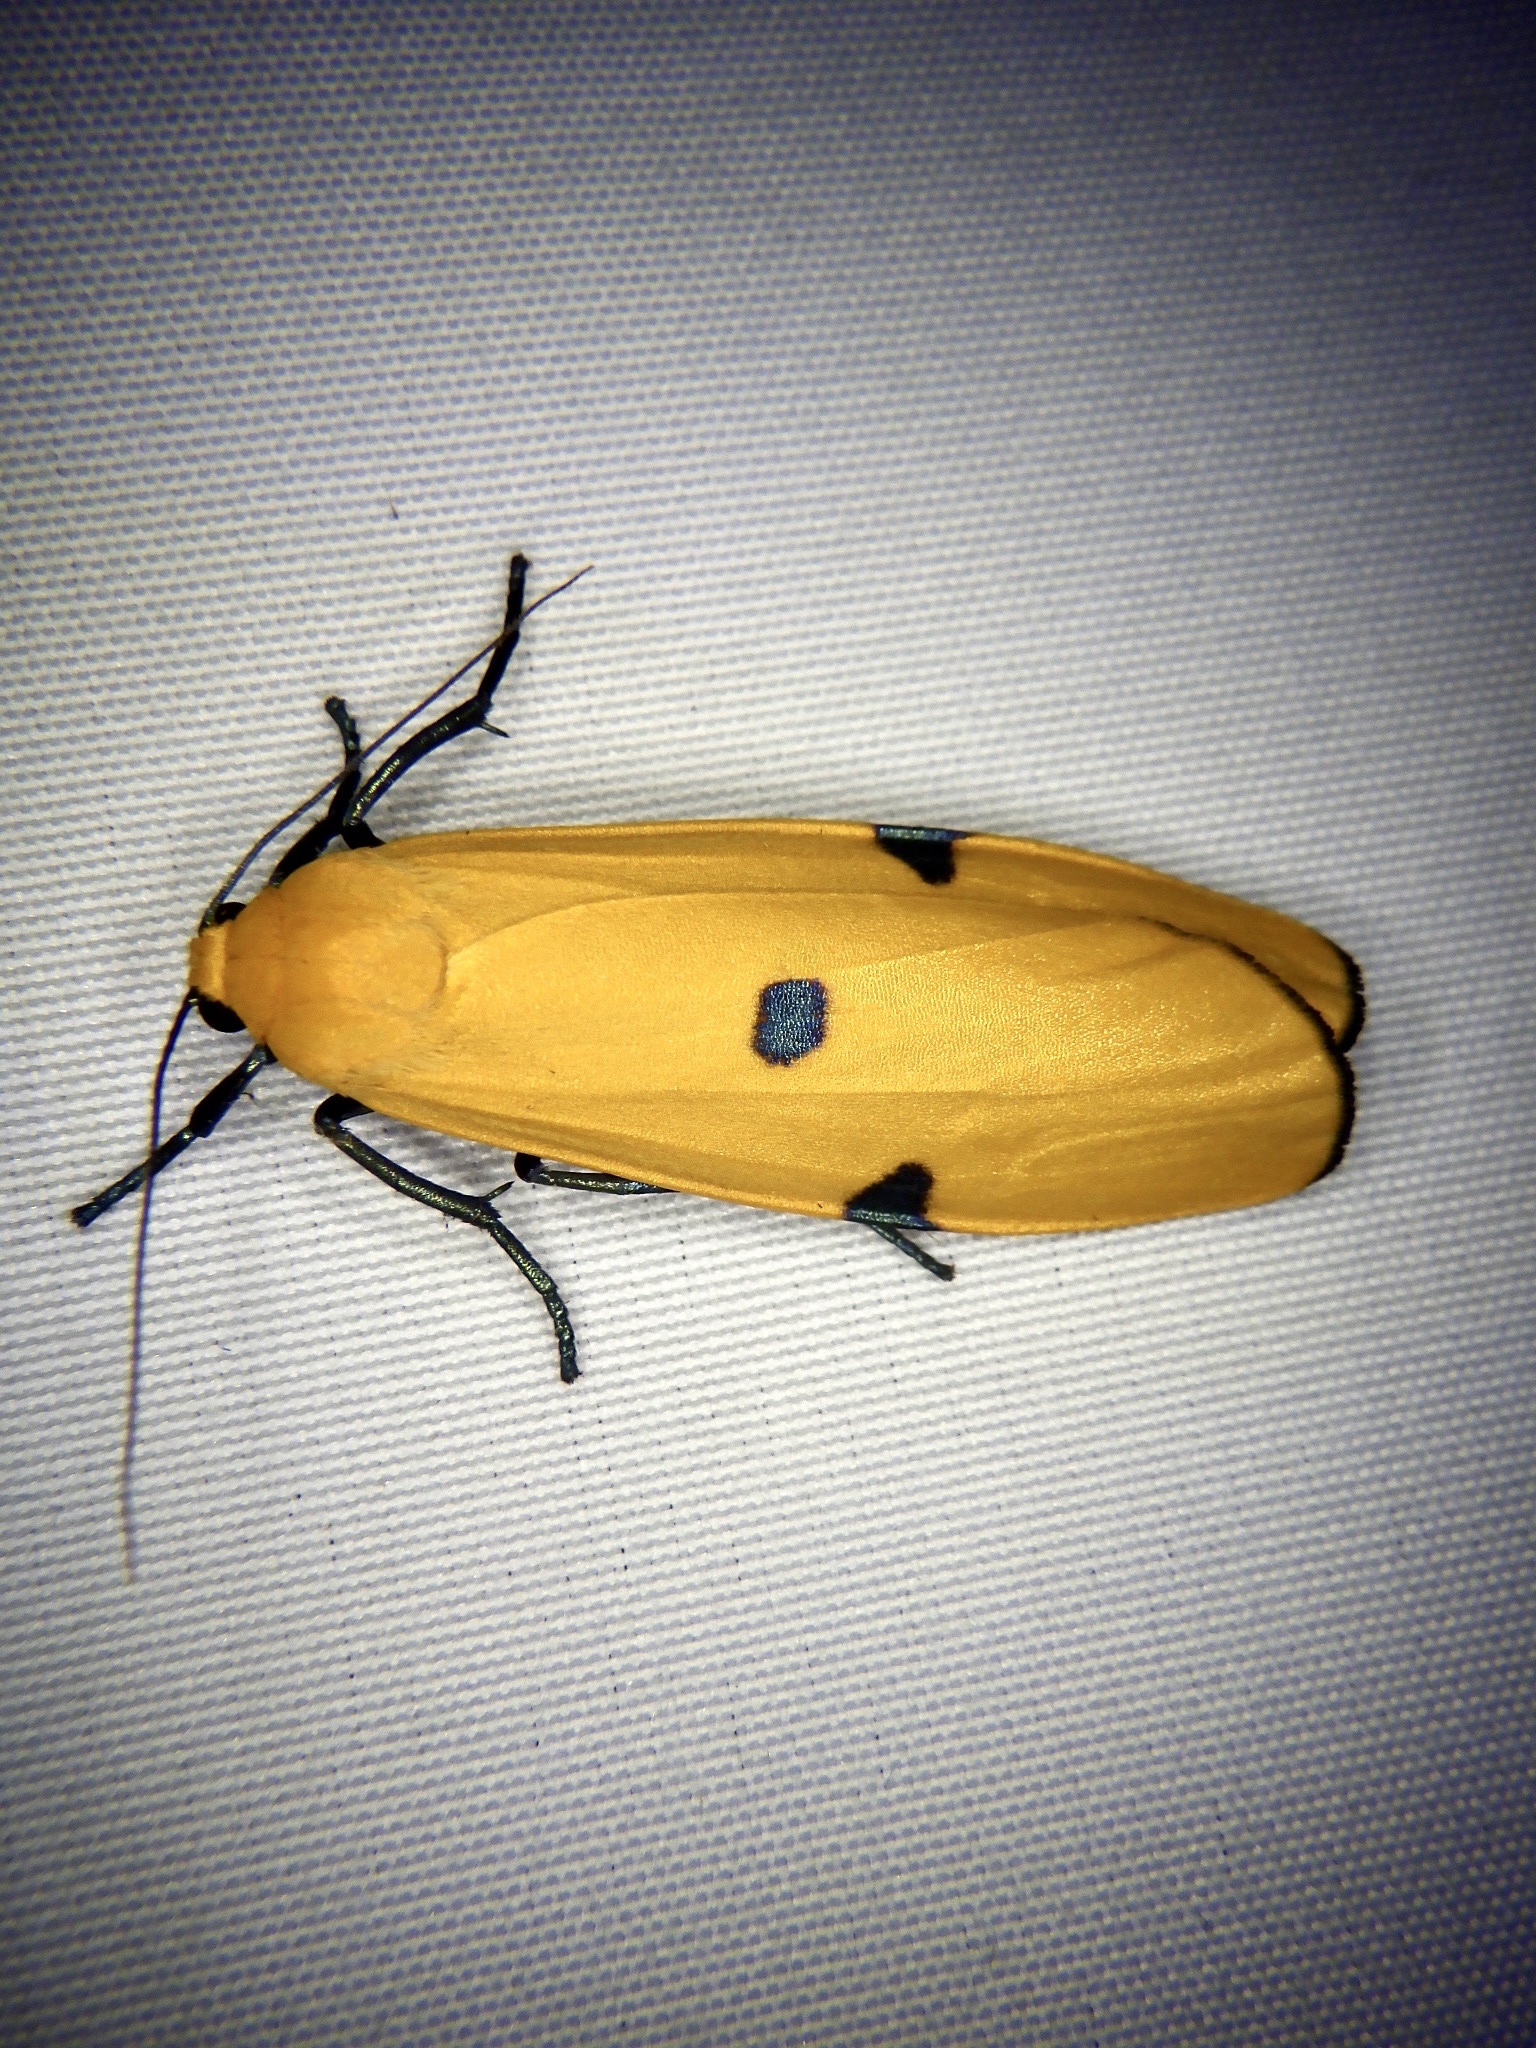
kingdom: Animalia
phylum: Arthropoda
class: Insecta
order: Lepidoptera
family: Erebidae
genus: Lithosia
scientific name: Lithosia quadra
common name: Four-spotted footman
